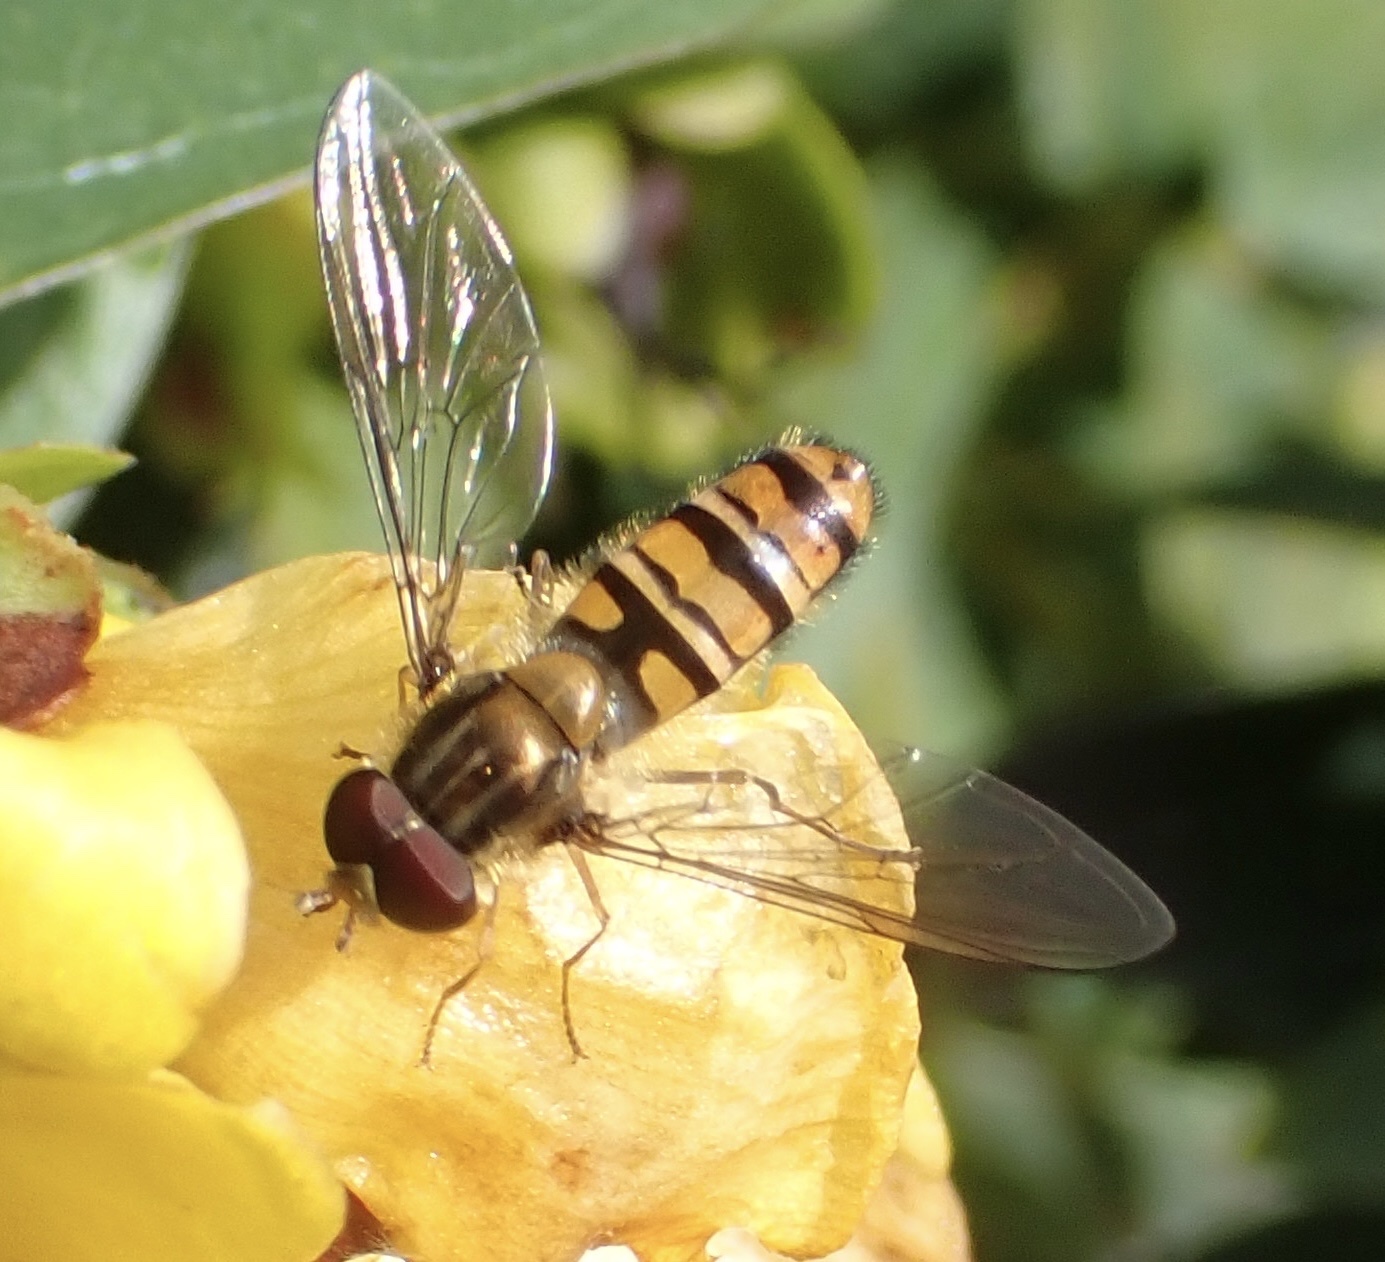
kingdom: Animalia
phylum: Arthropoda
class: Insecta
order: Diptera
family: Syrphidae
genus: Episyrphus
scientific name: Episyrphus balteatus
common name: Marmalade hoverfly
